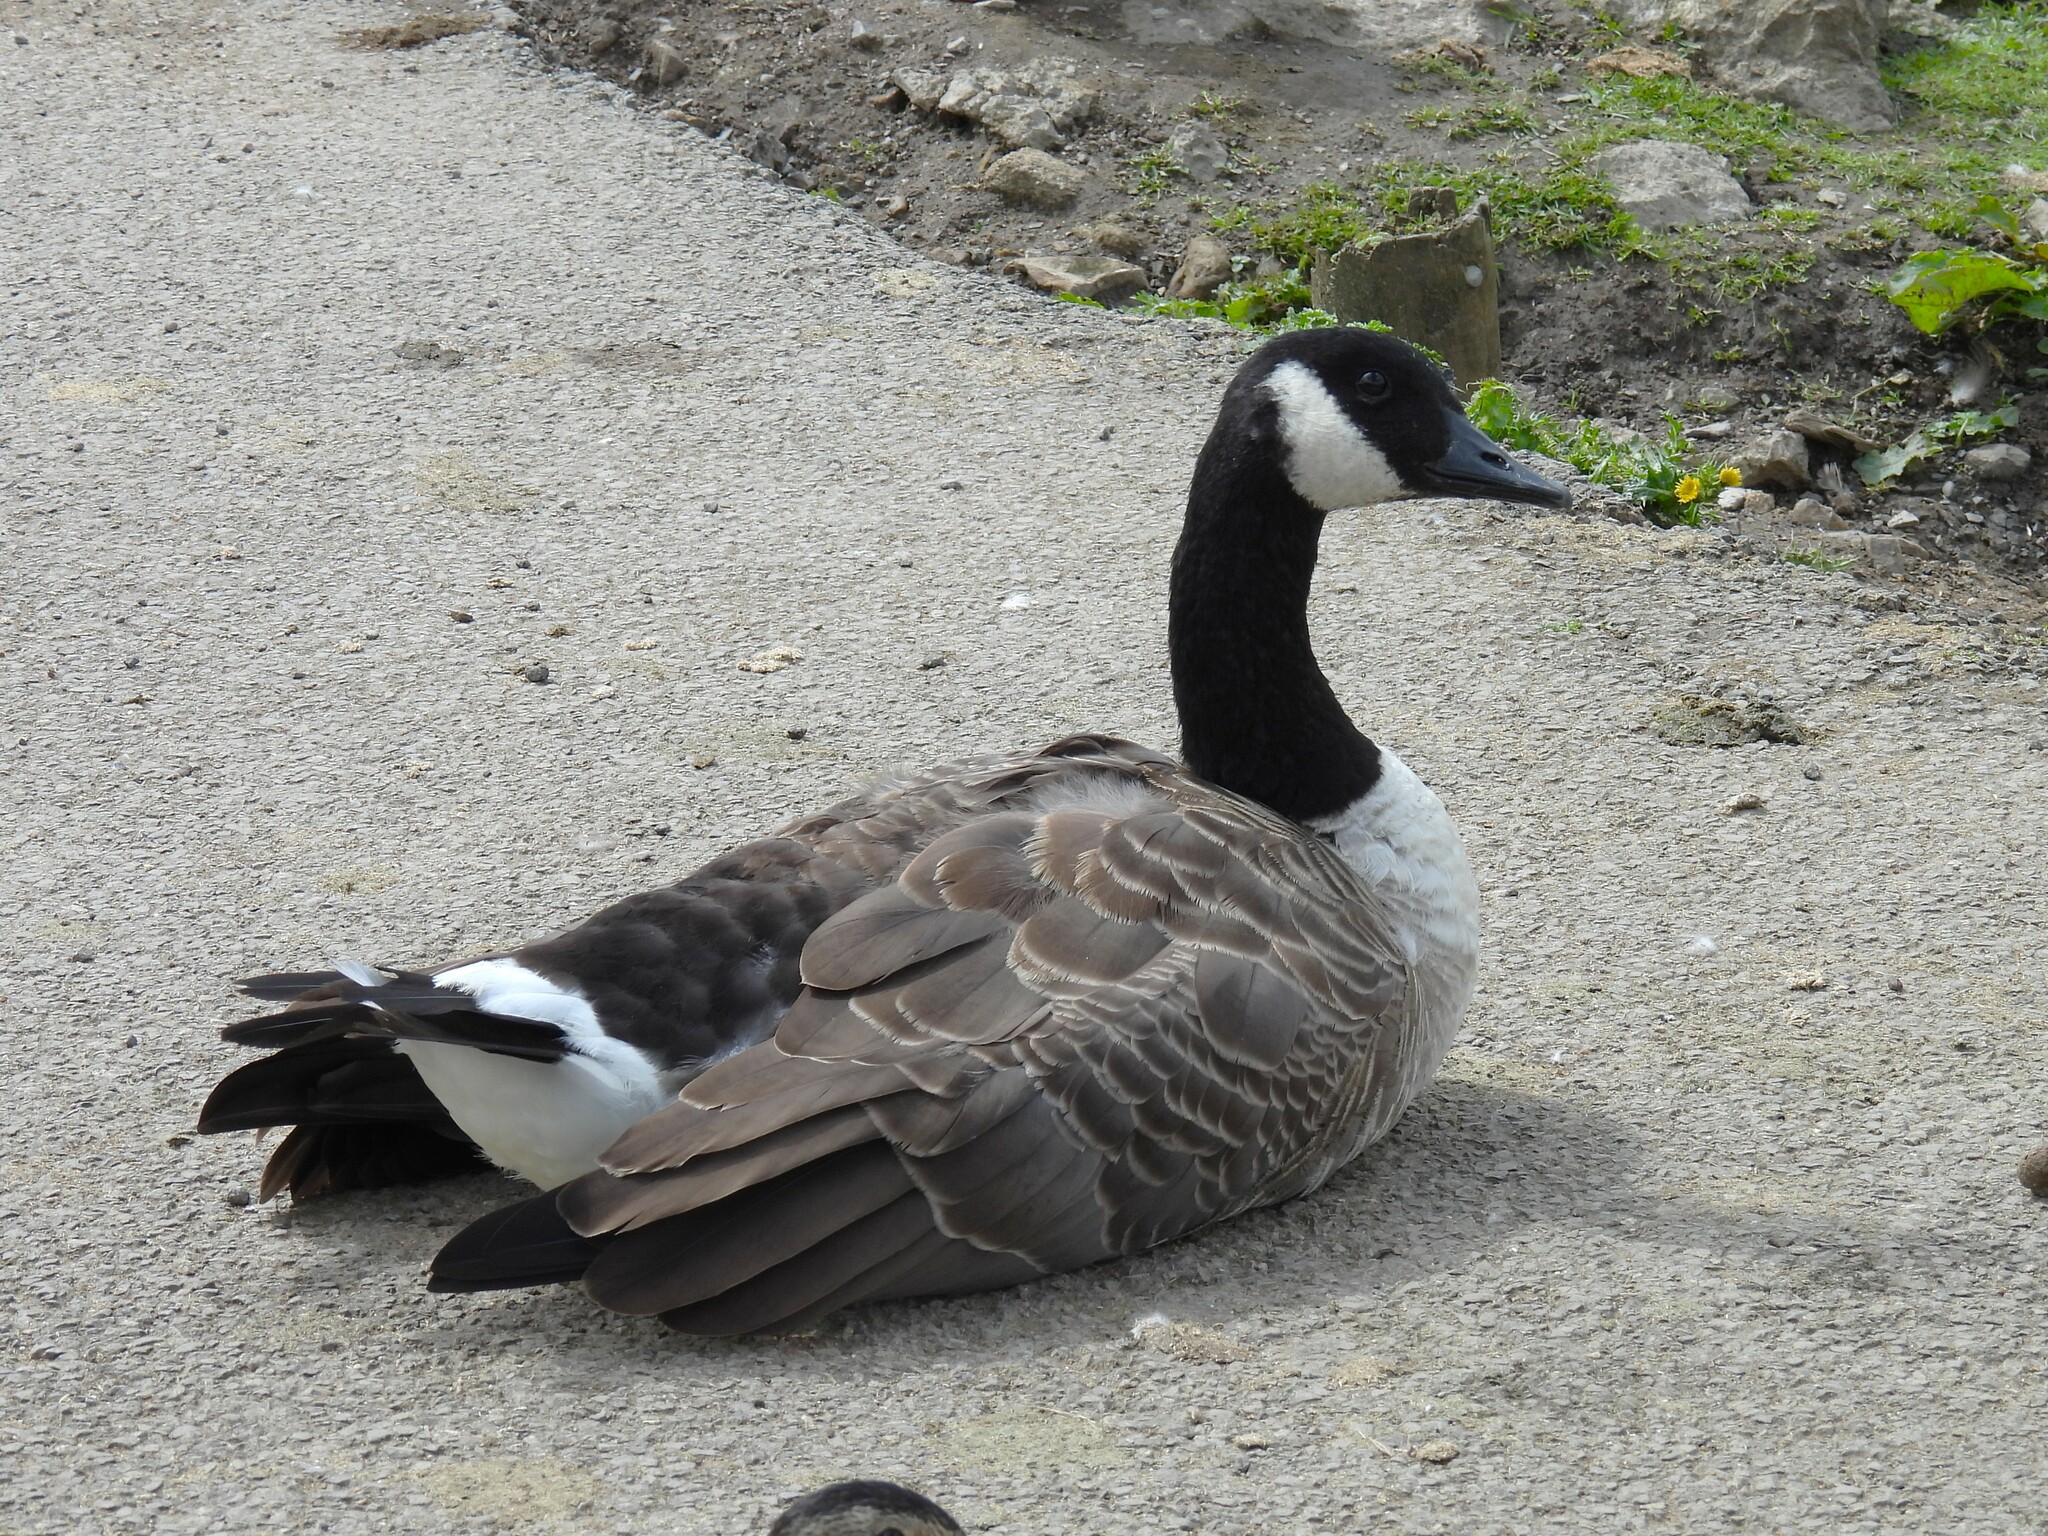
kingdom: Animalia
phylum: Chordata
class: Aves
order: Anseriformes
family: Anatidae
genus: Branta
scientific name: Branta canadensis
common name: Canada goose
